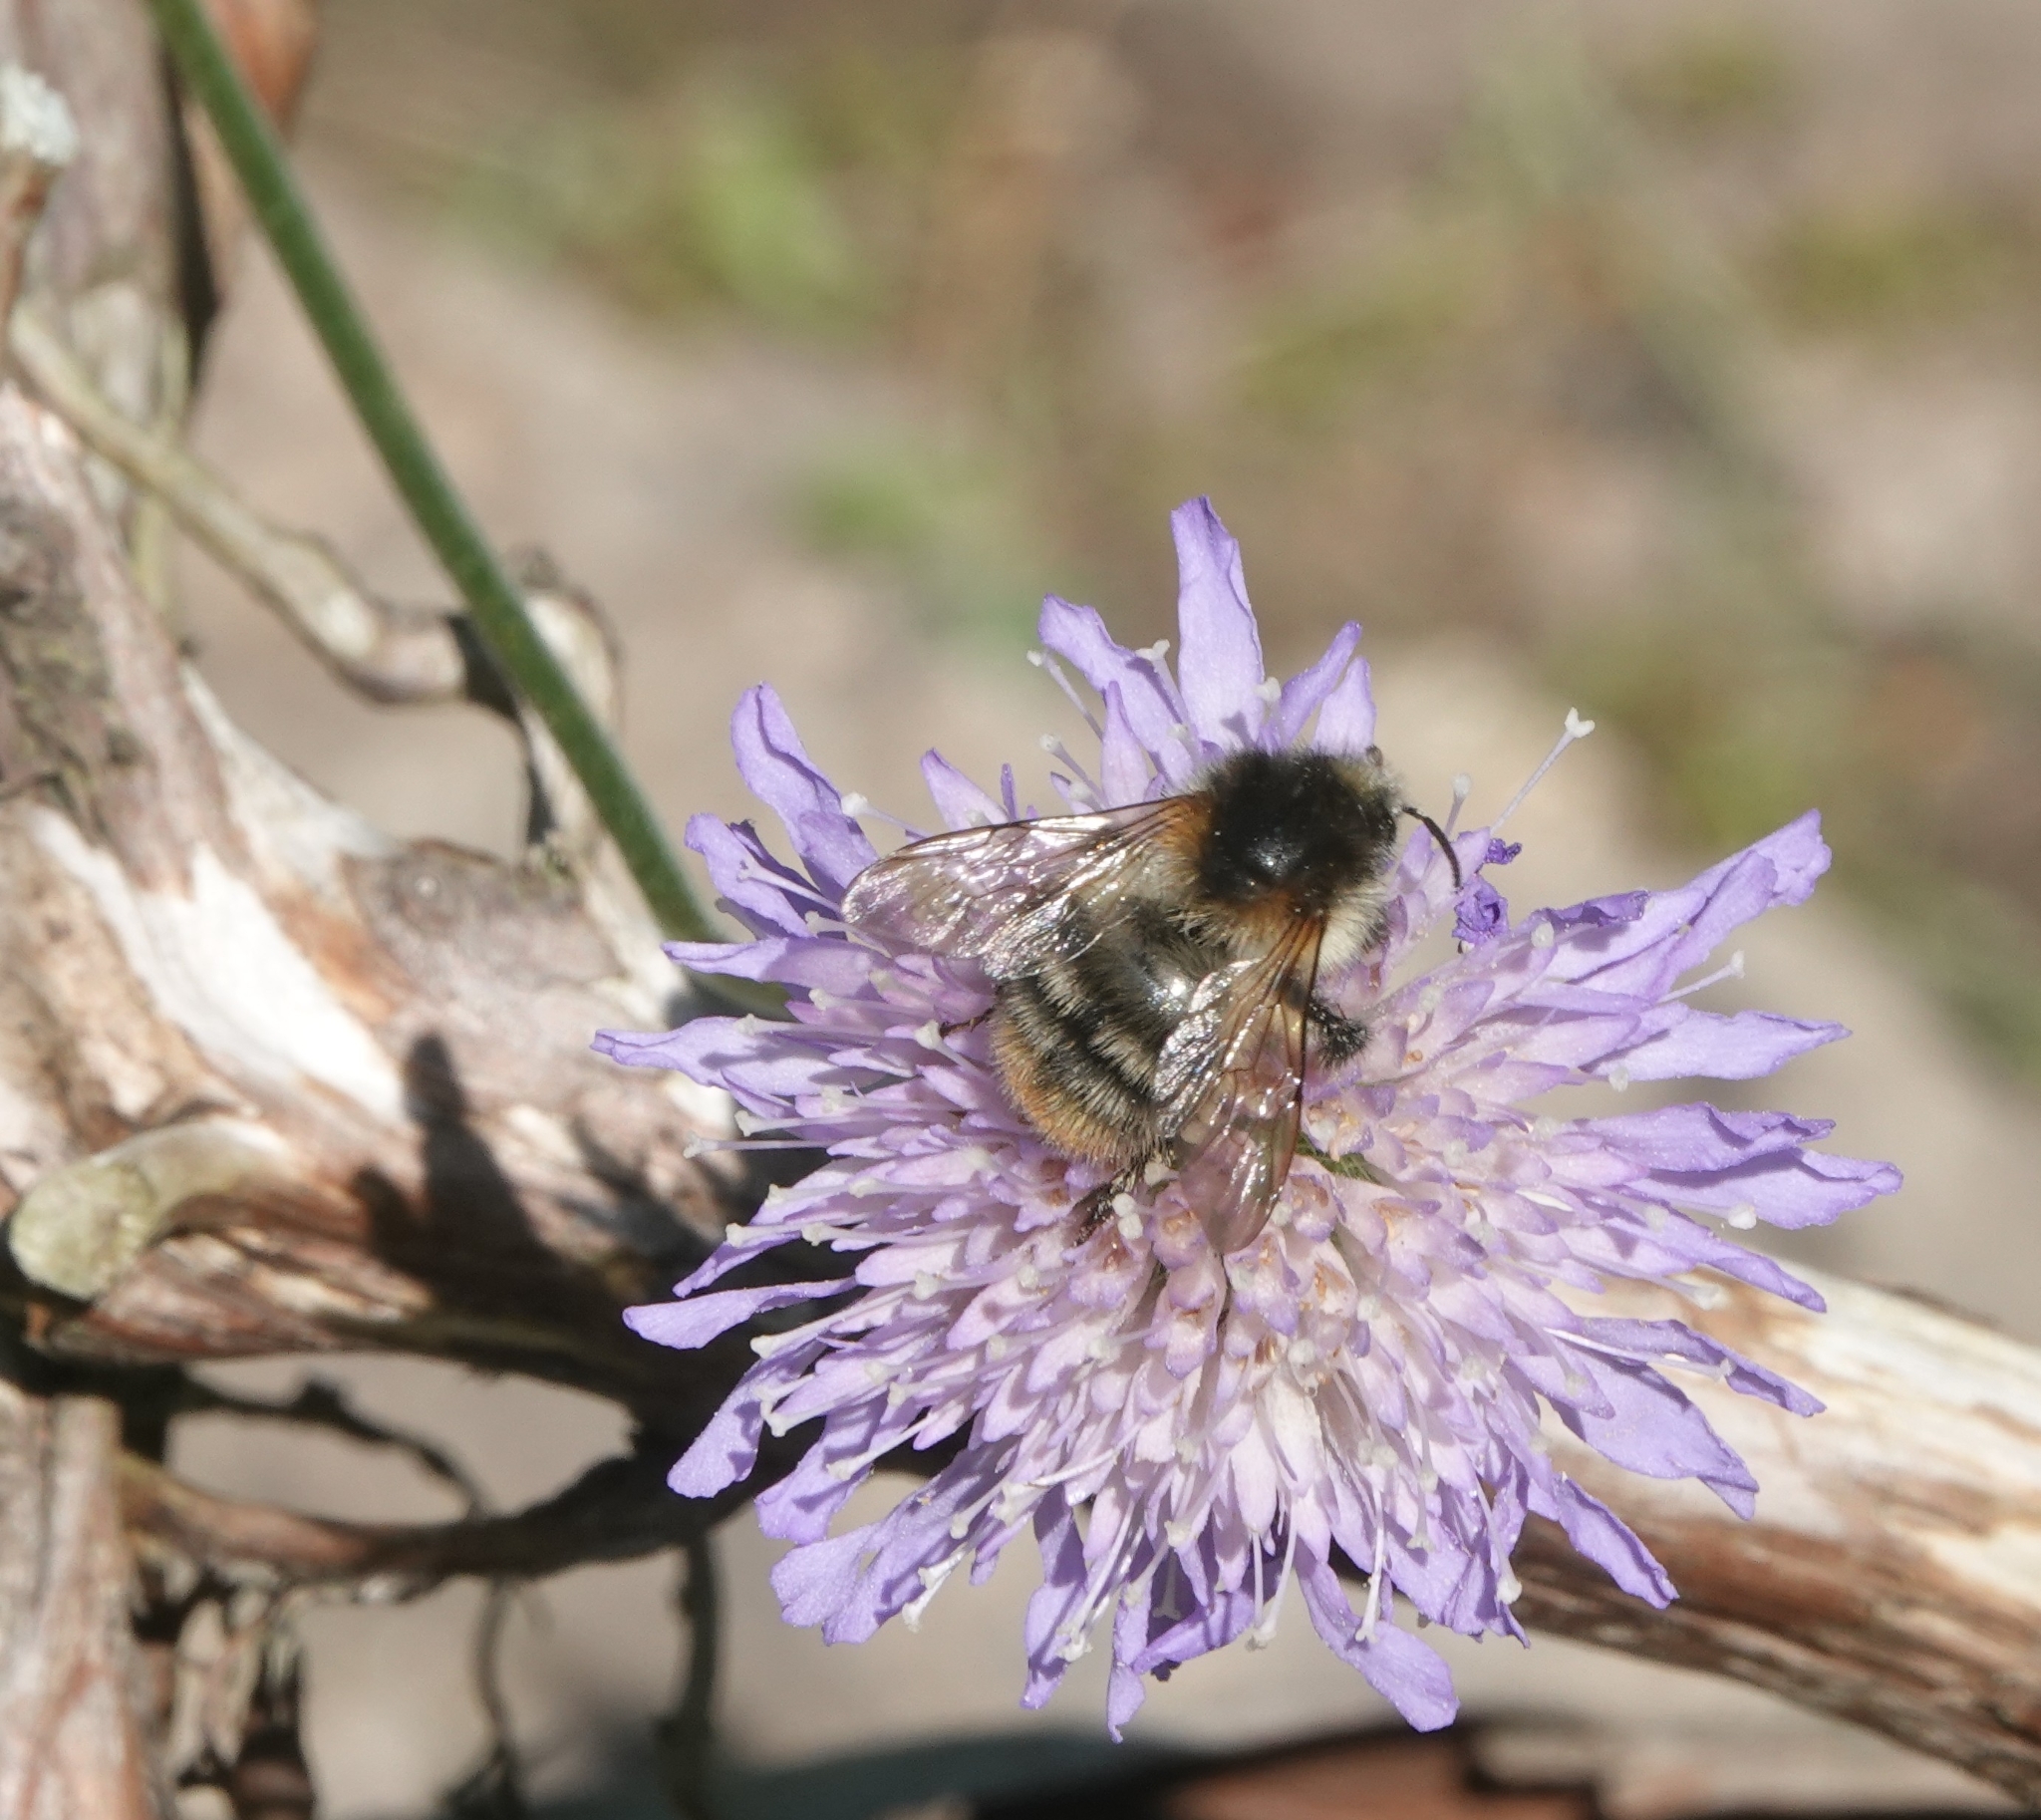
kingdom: Animalia
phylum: Arthropoda
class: Insecta
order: Hymenoptera
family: Apidae
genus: Bombus
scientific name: Bombus pascuorum
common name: Common carder bee
